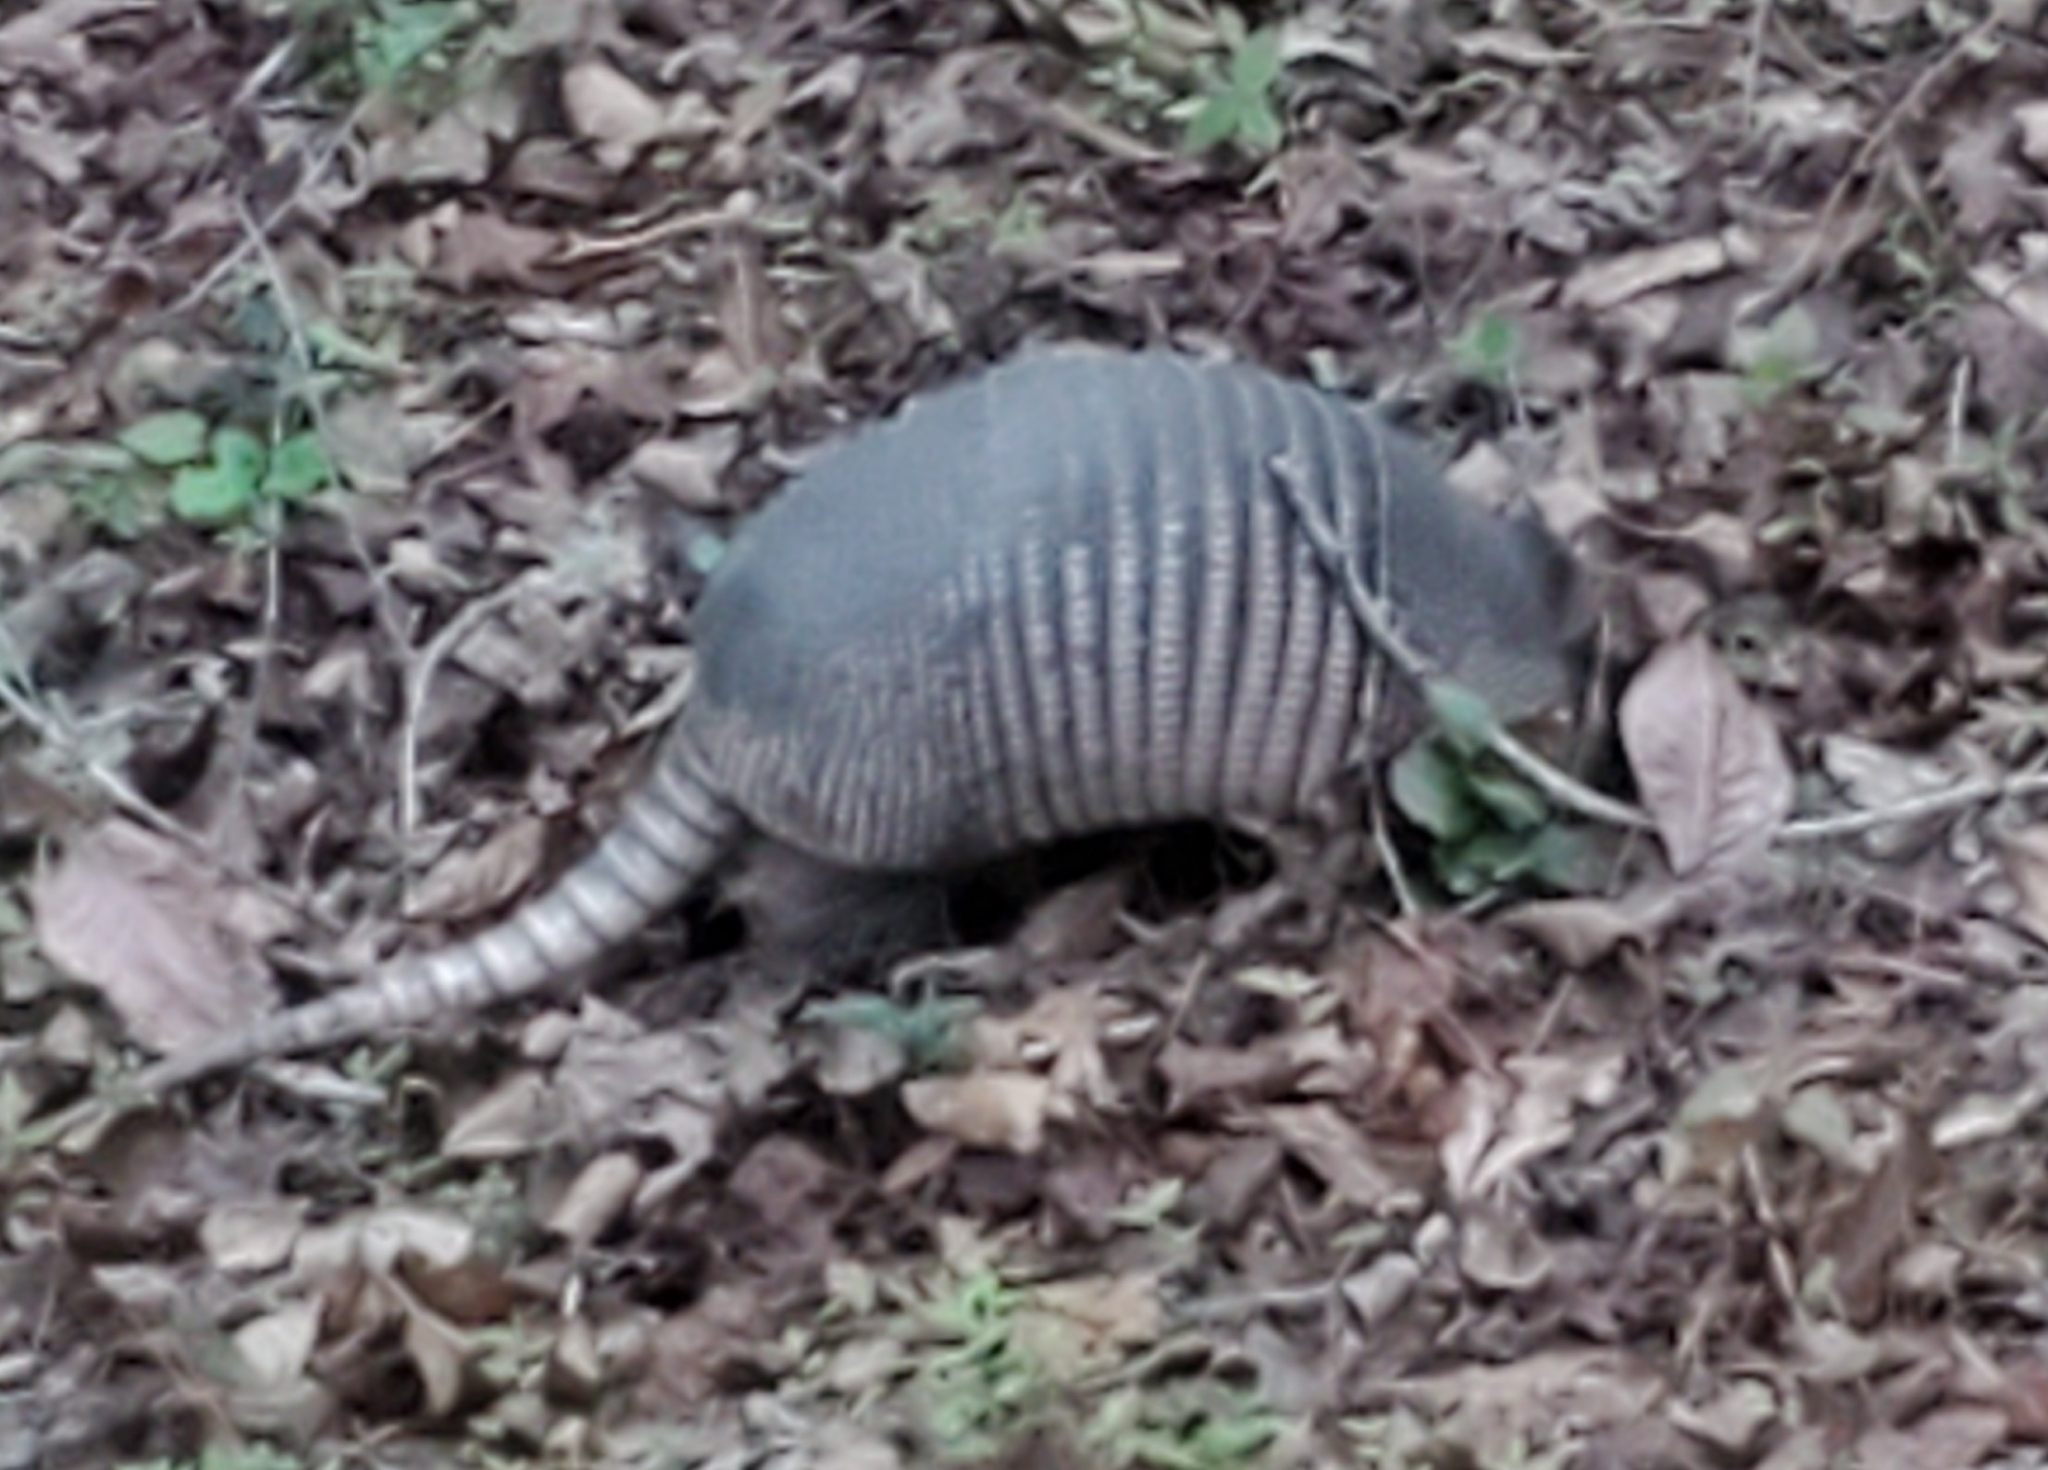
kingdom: Animalia
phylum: Chordata
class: Mammalia
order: Cingulata
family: Dasypodidae
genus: Dasypus
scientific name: Dasypus novemcinctus
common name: Nine-banded armadillo
